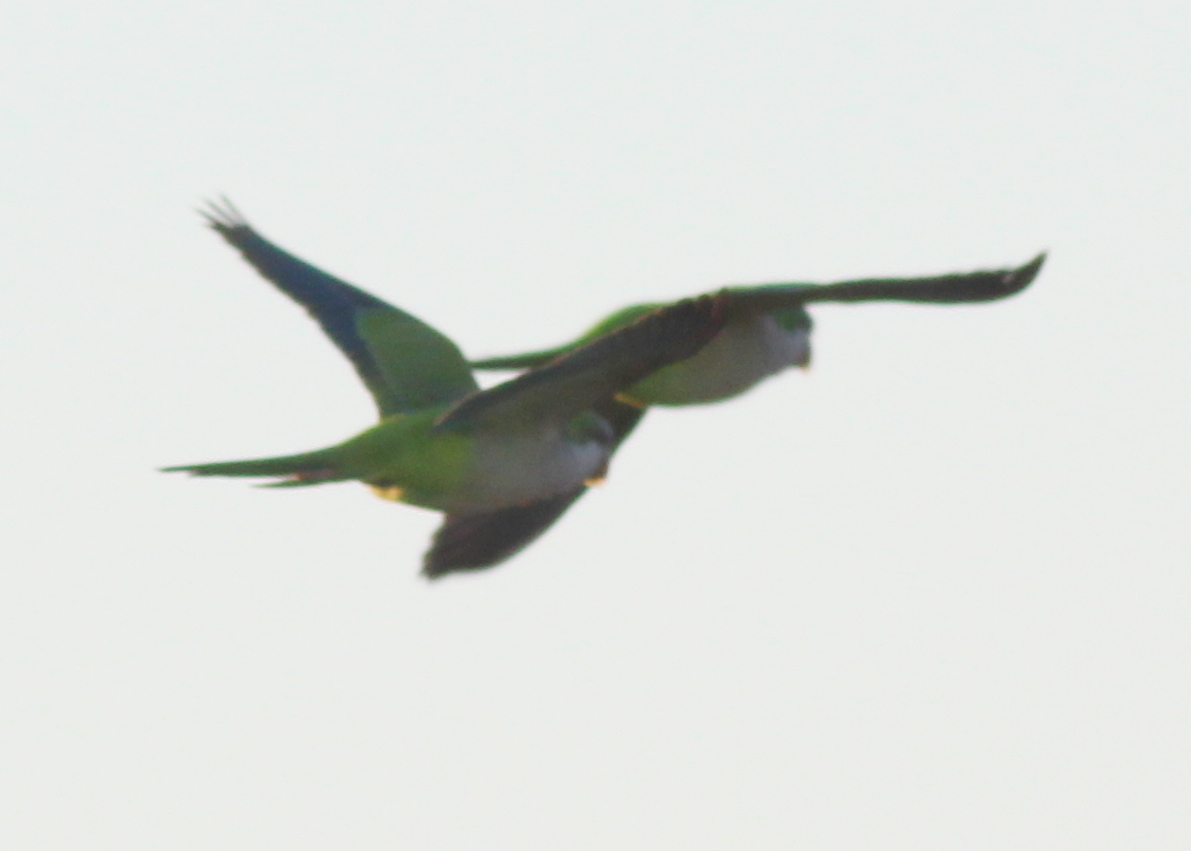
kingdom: Animalia
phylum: Chordata
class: Aves
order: Psittaciformes
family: Psittacidae
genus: Myiopsitta
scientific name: Myiopsitta monachus
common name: Monk parakeet
